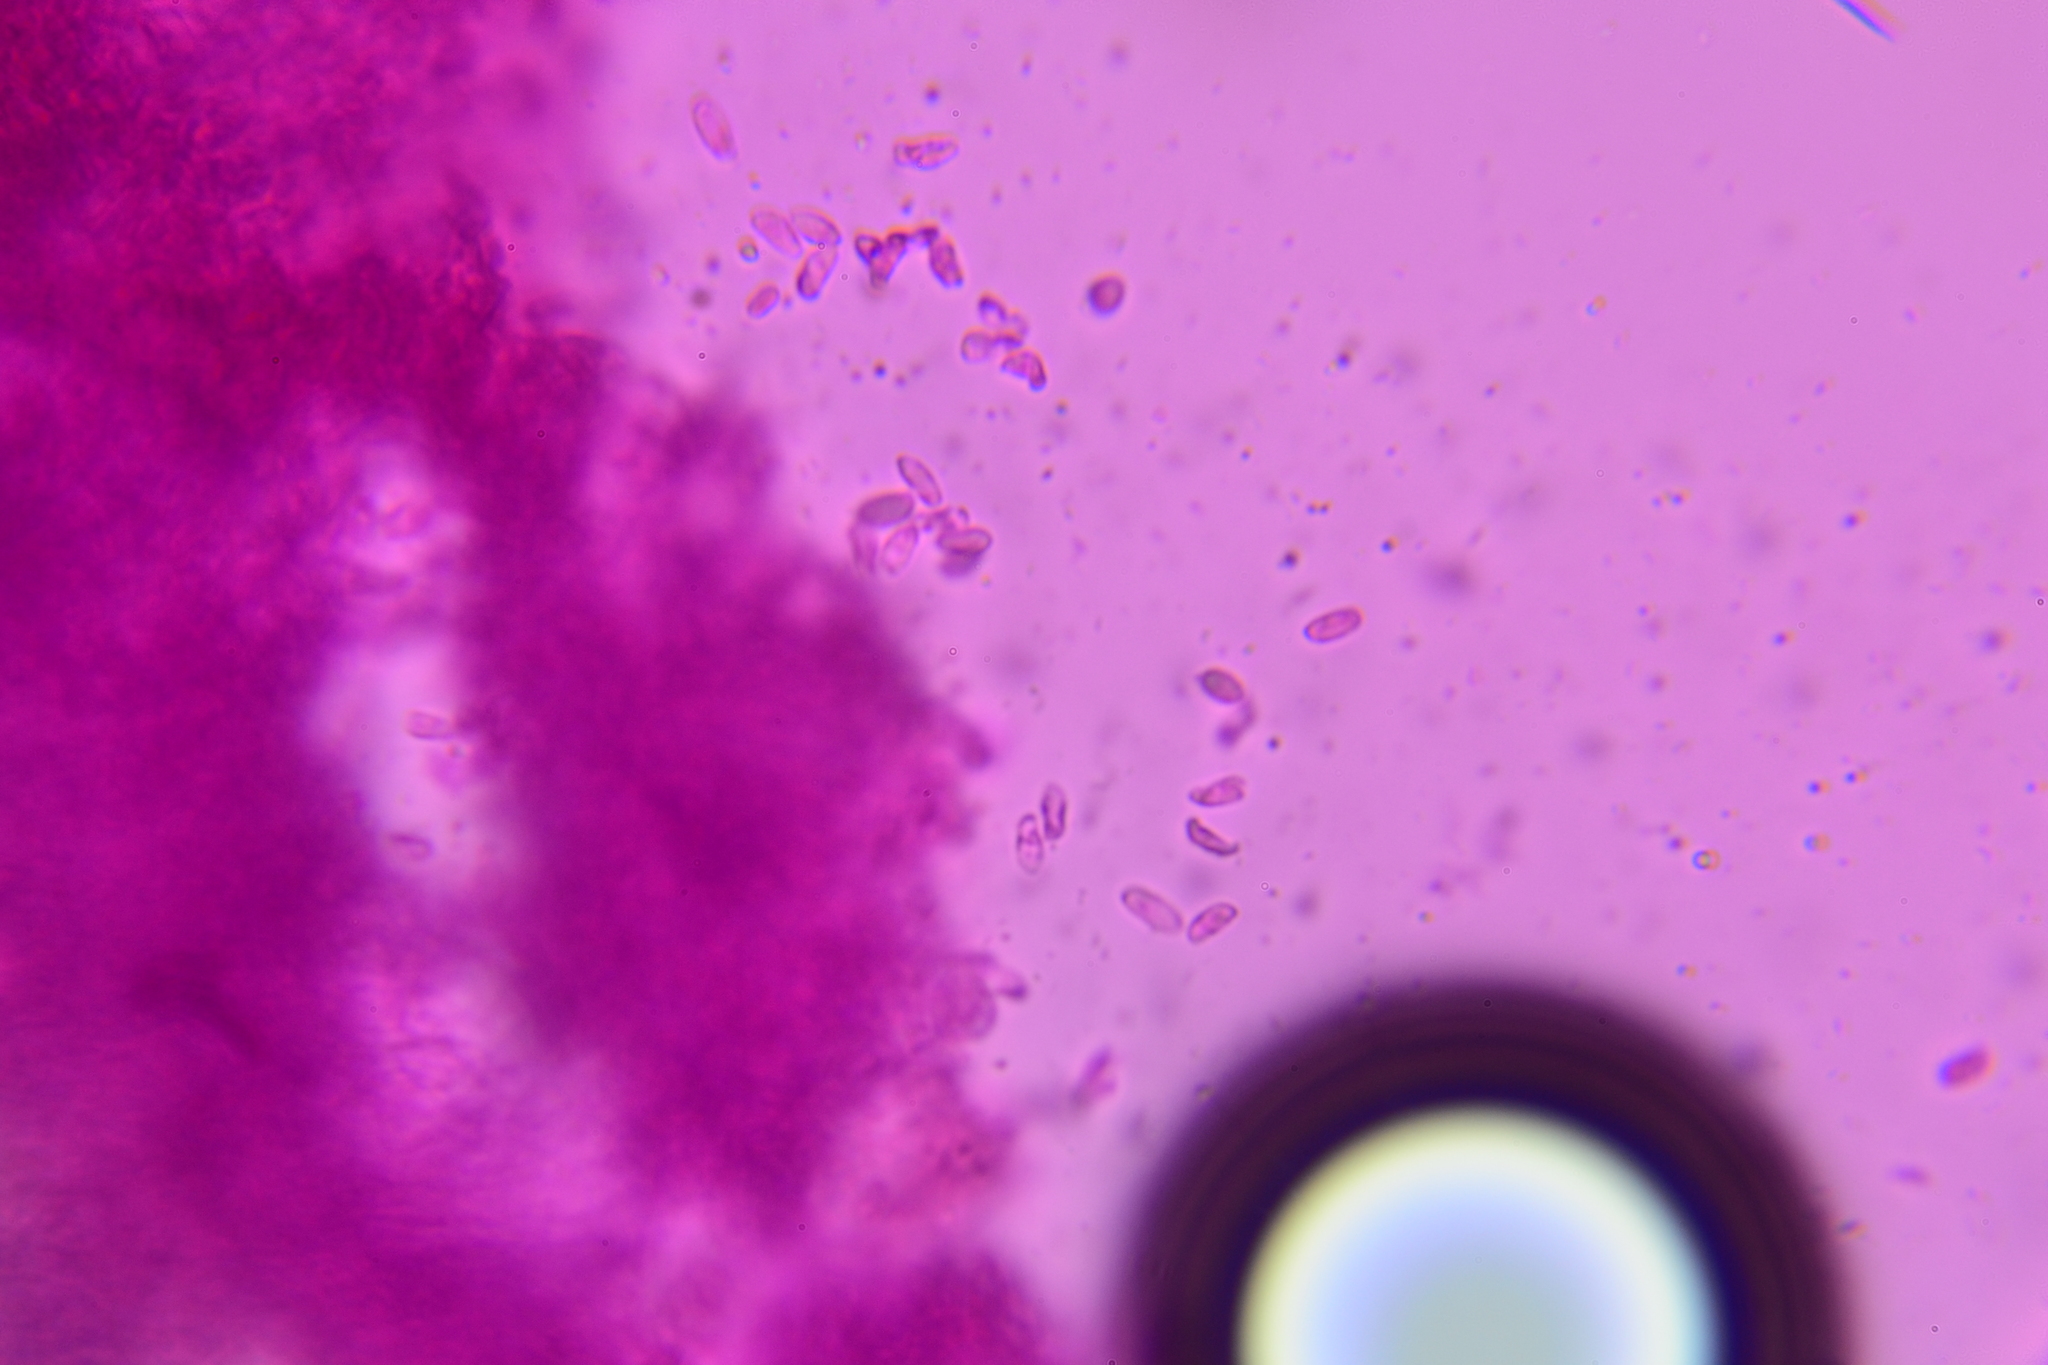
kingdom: Fungi
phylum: Basidiomycota
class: Agaricomycetes
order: Agaricales
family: Tricholomataceae
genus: Pseudotricholoma
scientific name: Pseudotricholoma umbrosum
